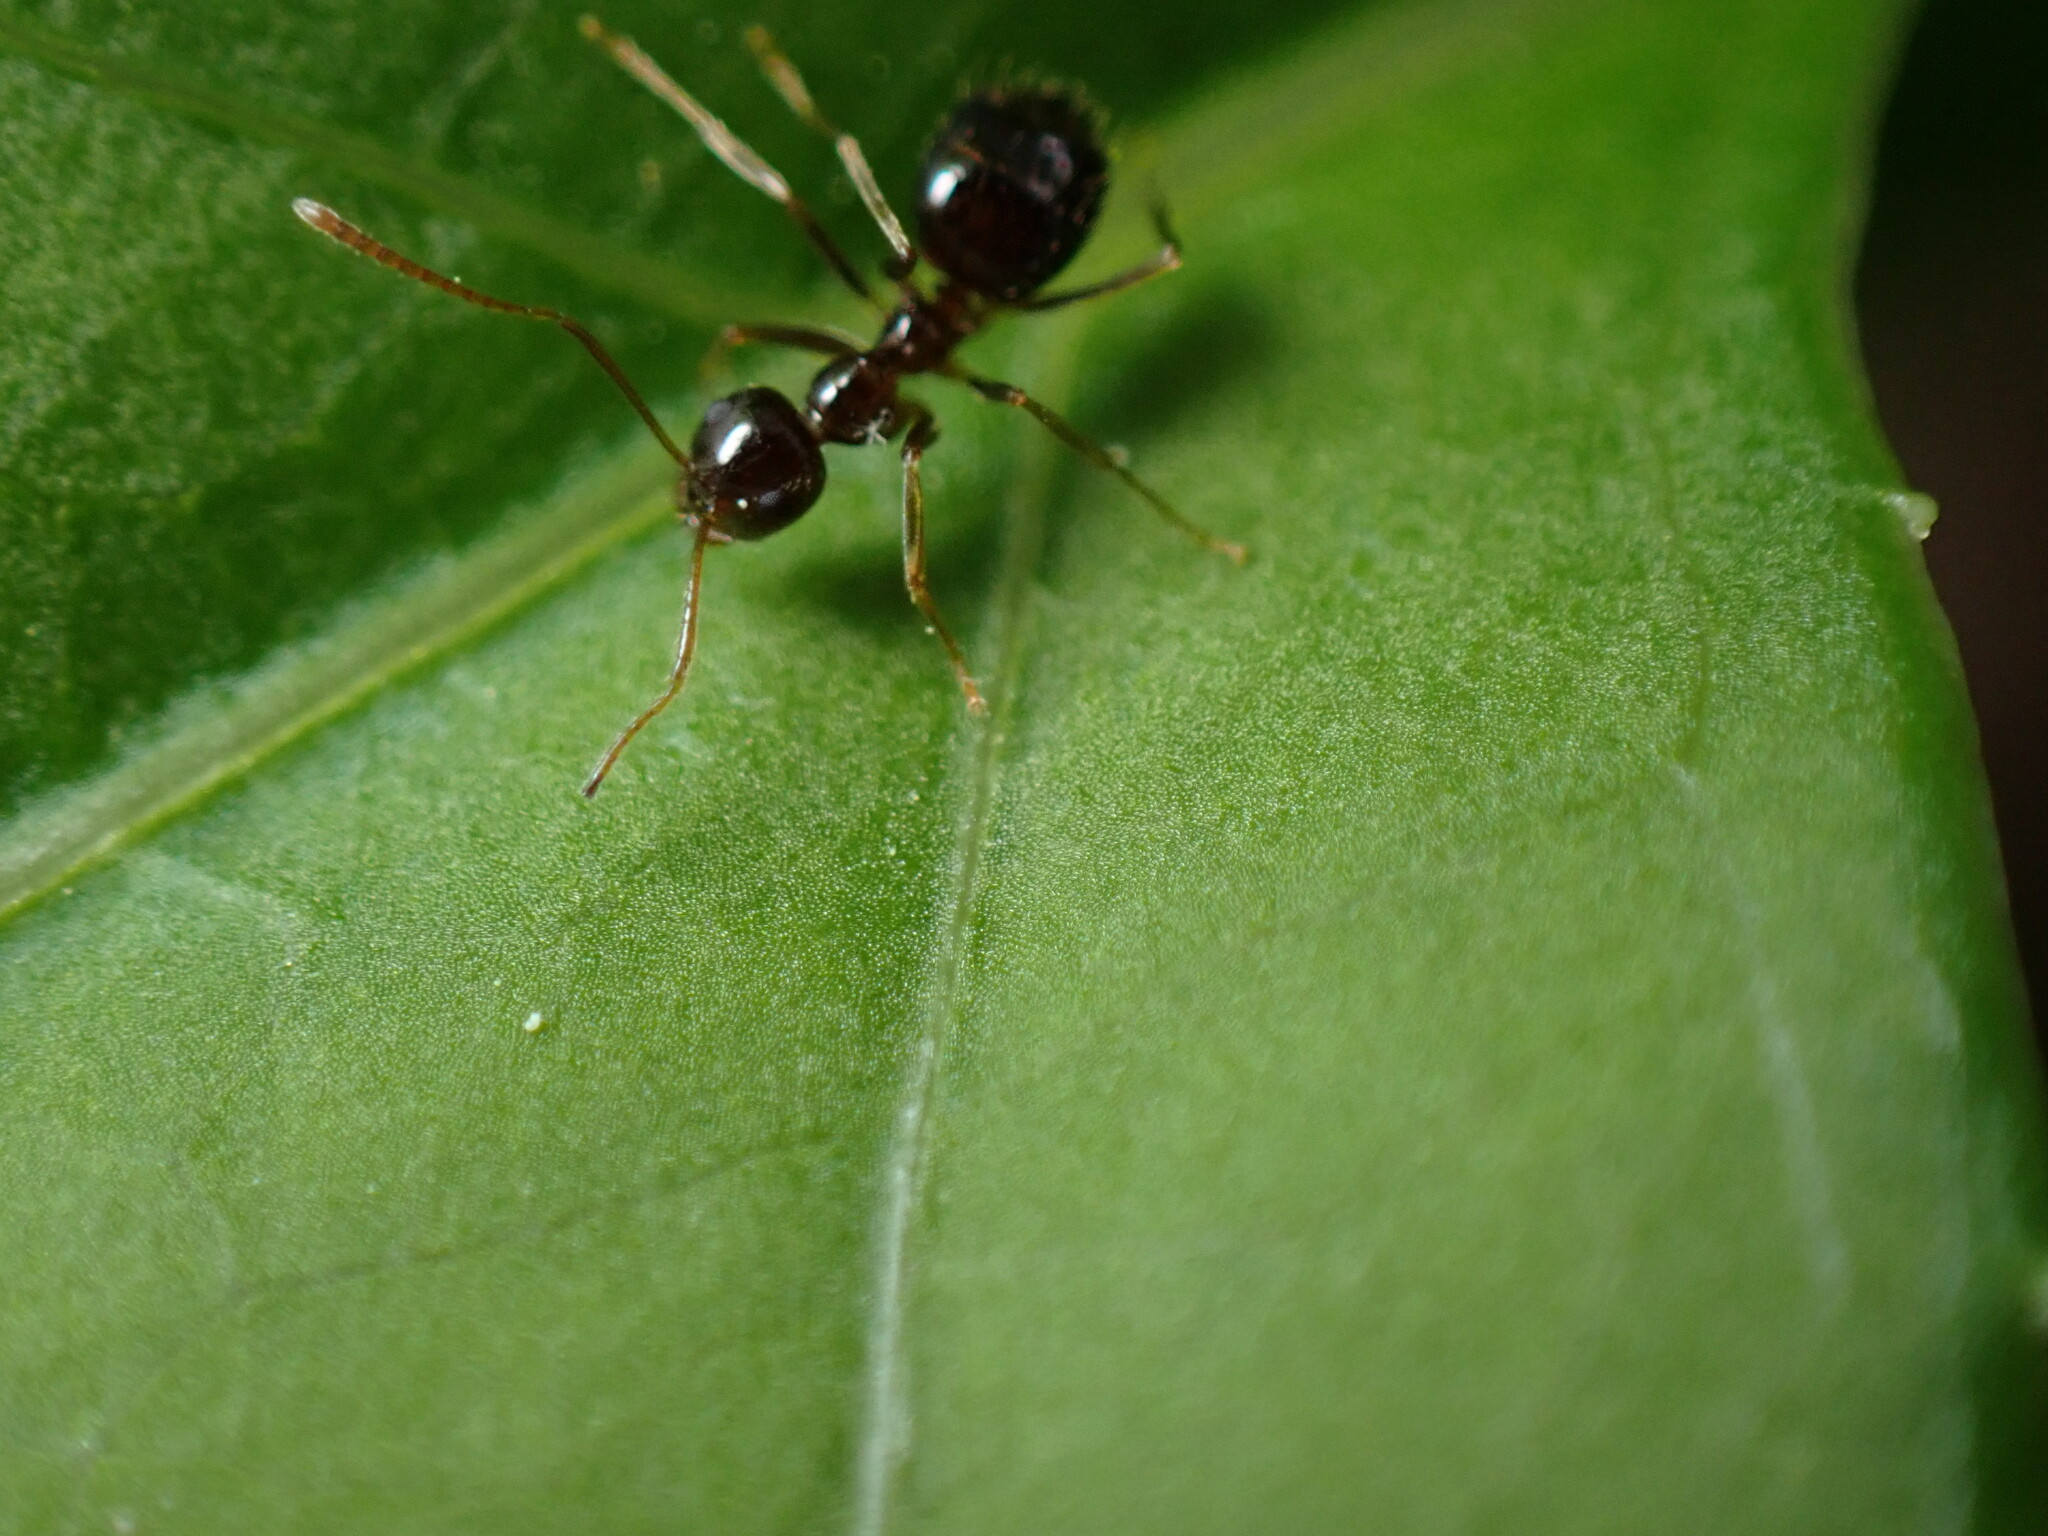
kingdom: Animalia
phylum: Arthropoda
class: Insecta
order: Hymenoptera
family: Formicidae
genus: Prenolepis
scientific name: Prenolepis imparis
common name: Small honey ant
